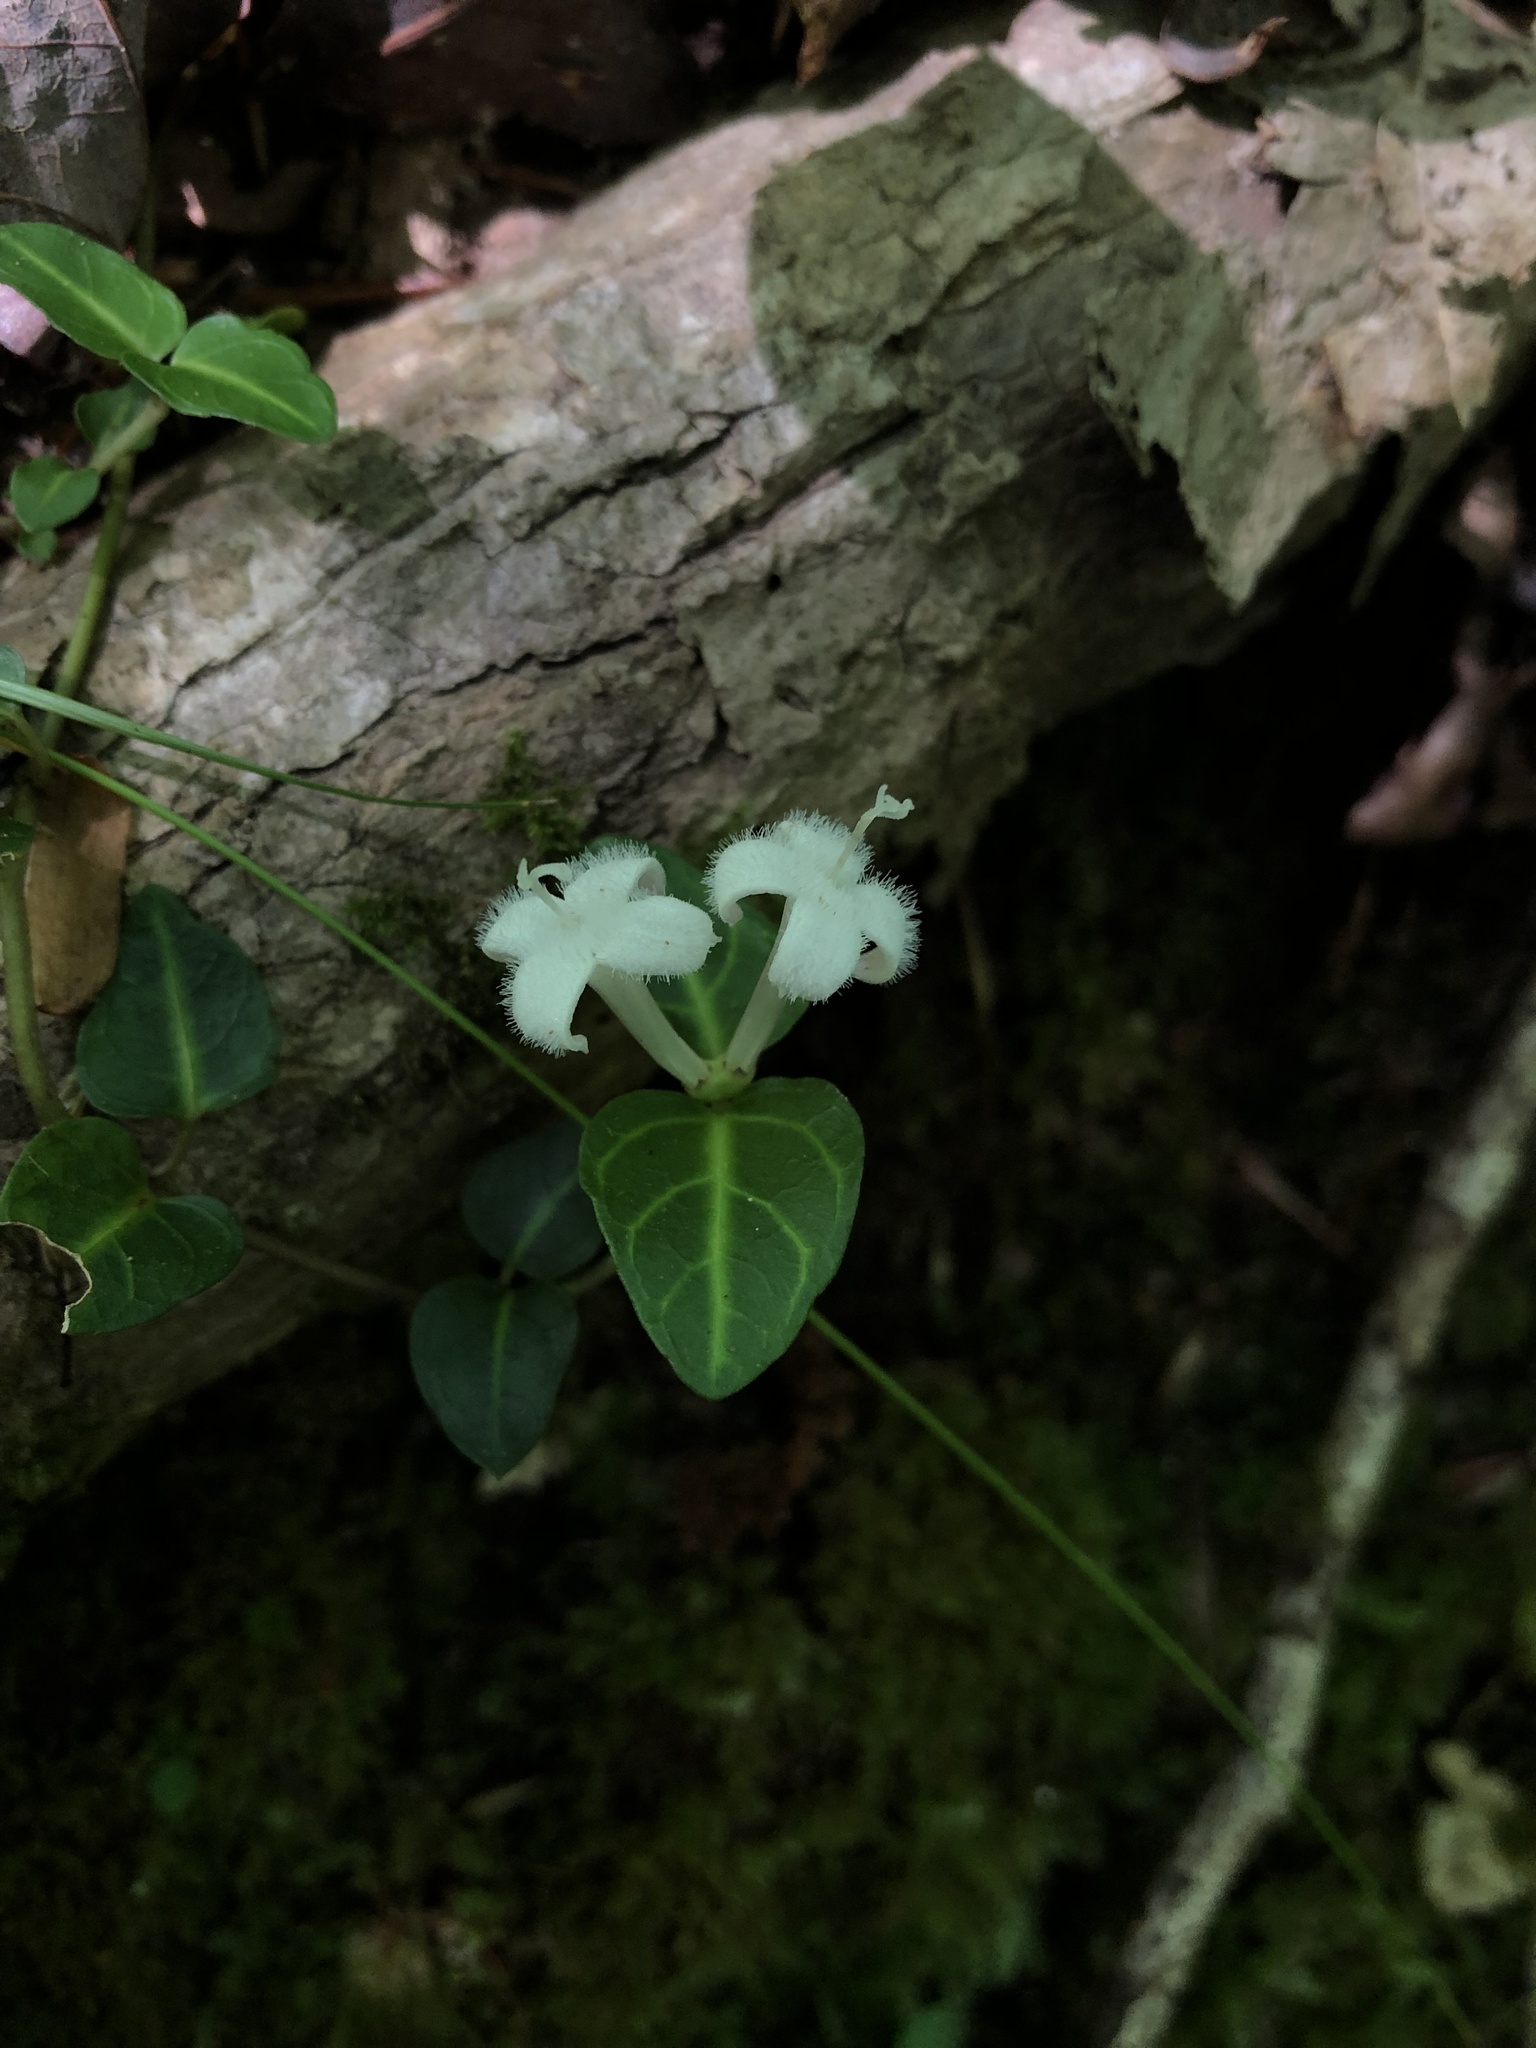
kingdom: Plantae
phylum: Tracheophyta
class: Magnoliopsida
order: Gentianales
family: Rubiaceae
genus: Mitchella
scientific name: Mitchella repens
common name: Partridge-berry
